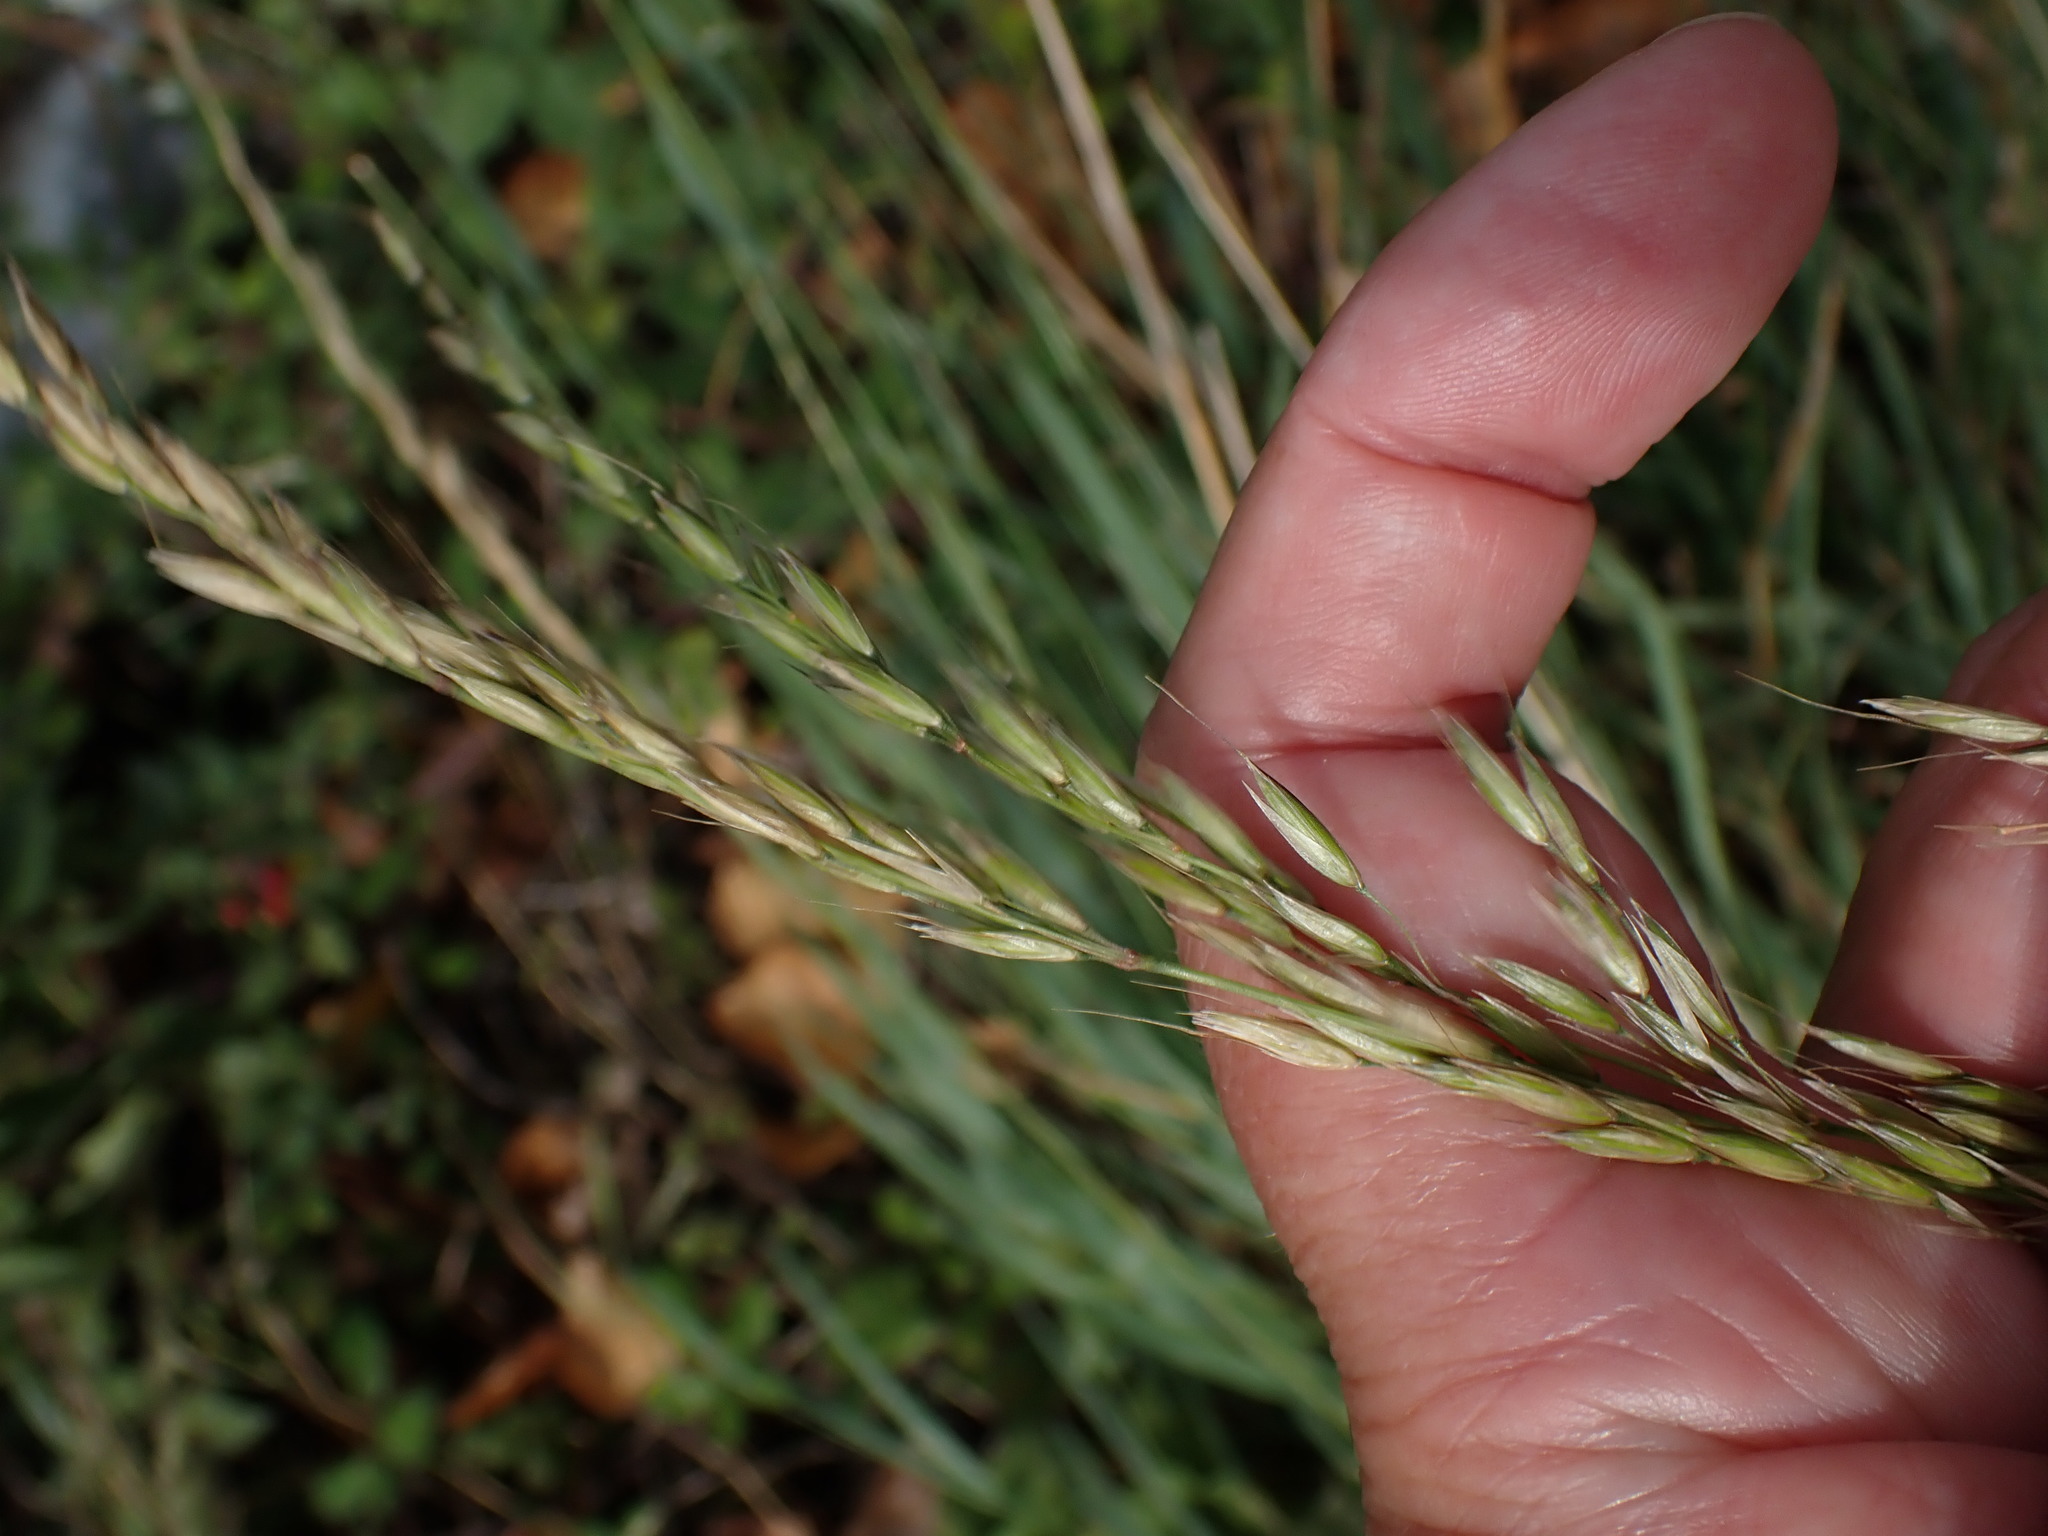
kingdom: Plantae
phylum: Tracheophyta
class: Liliopsida
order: Poales
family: Poaceae
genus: Arrhenatherum
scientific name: Arrhenatherum elatius
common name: Tall oatgrass
